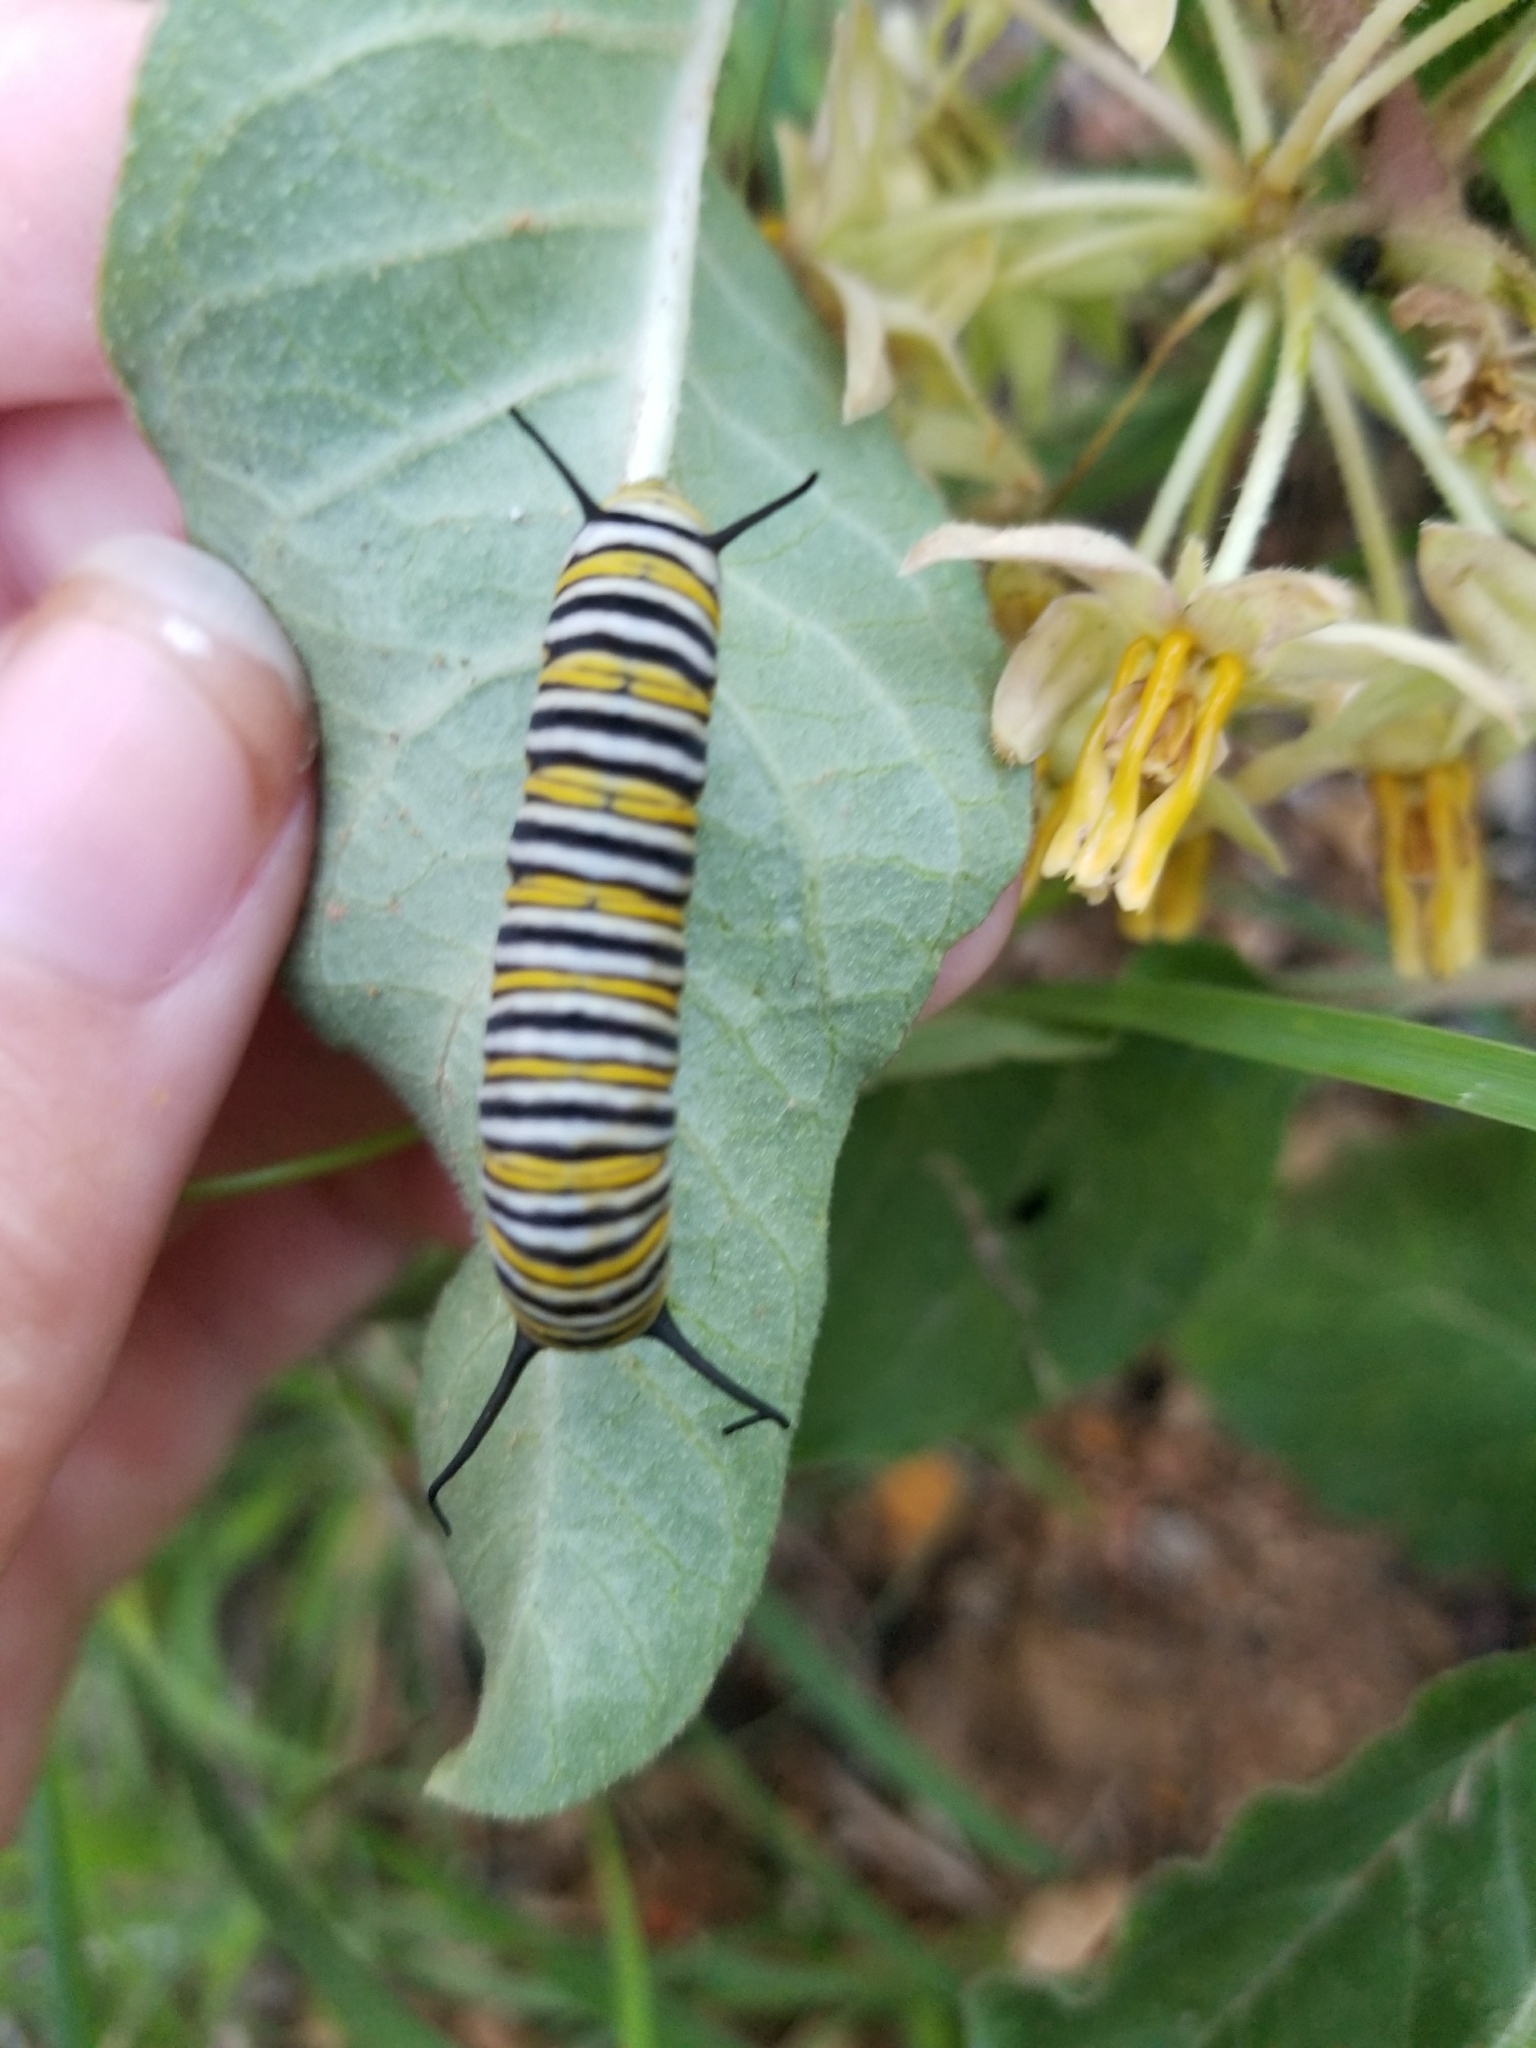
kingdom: Animalia
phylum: Arthropoda
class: Insecta
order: Lepidoptera
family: Nymphalidae
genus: Danaus
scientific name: Danaus plexippus
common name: Monarch
